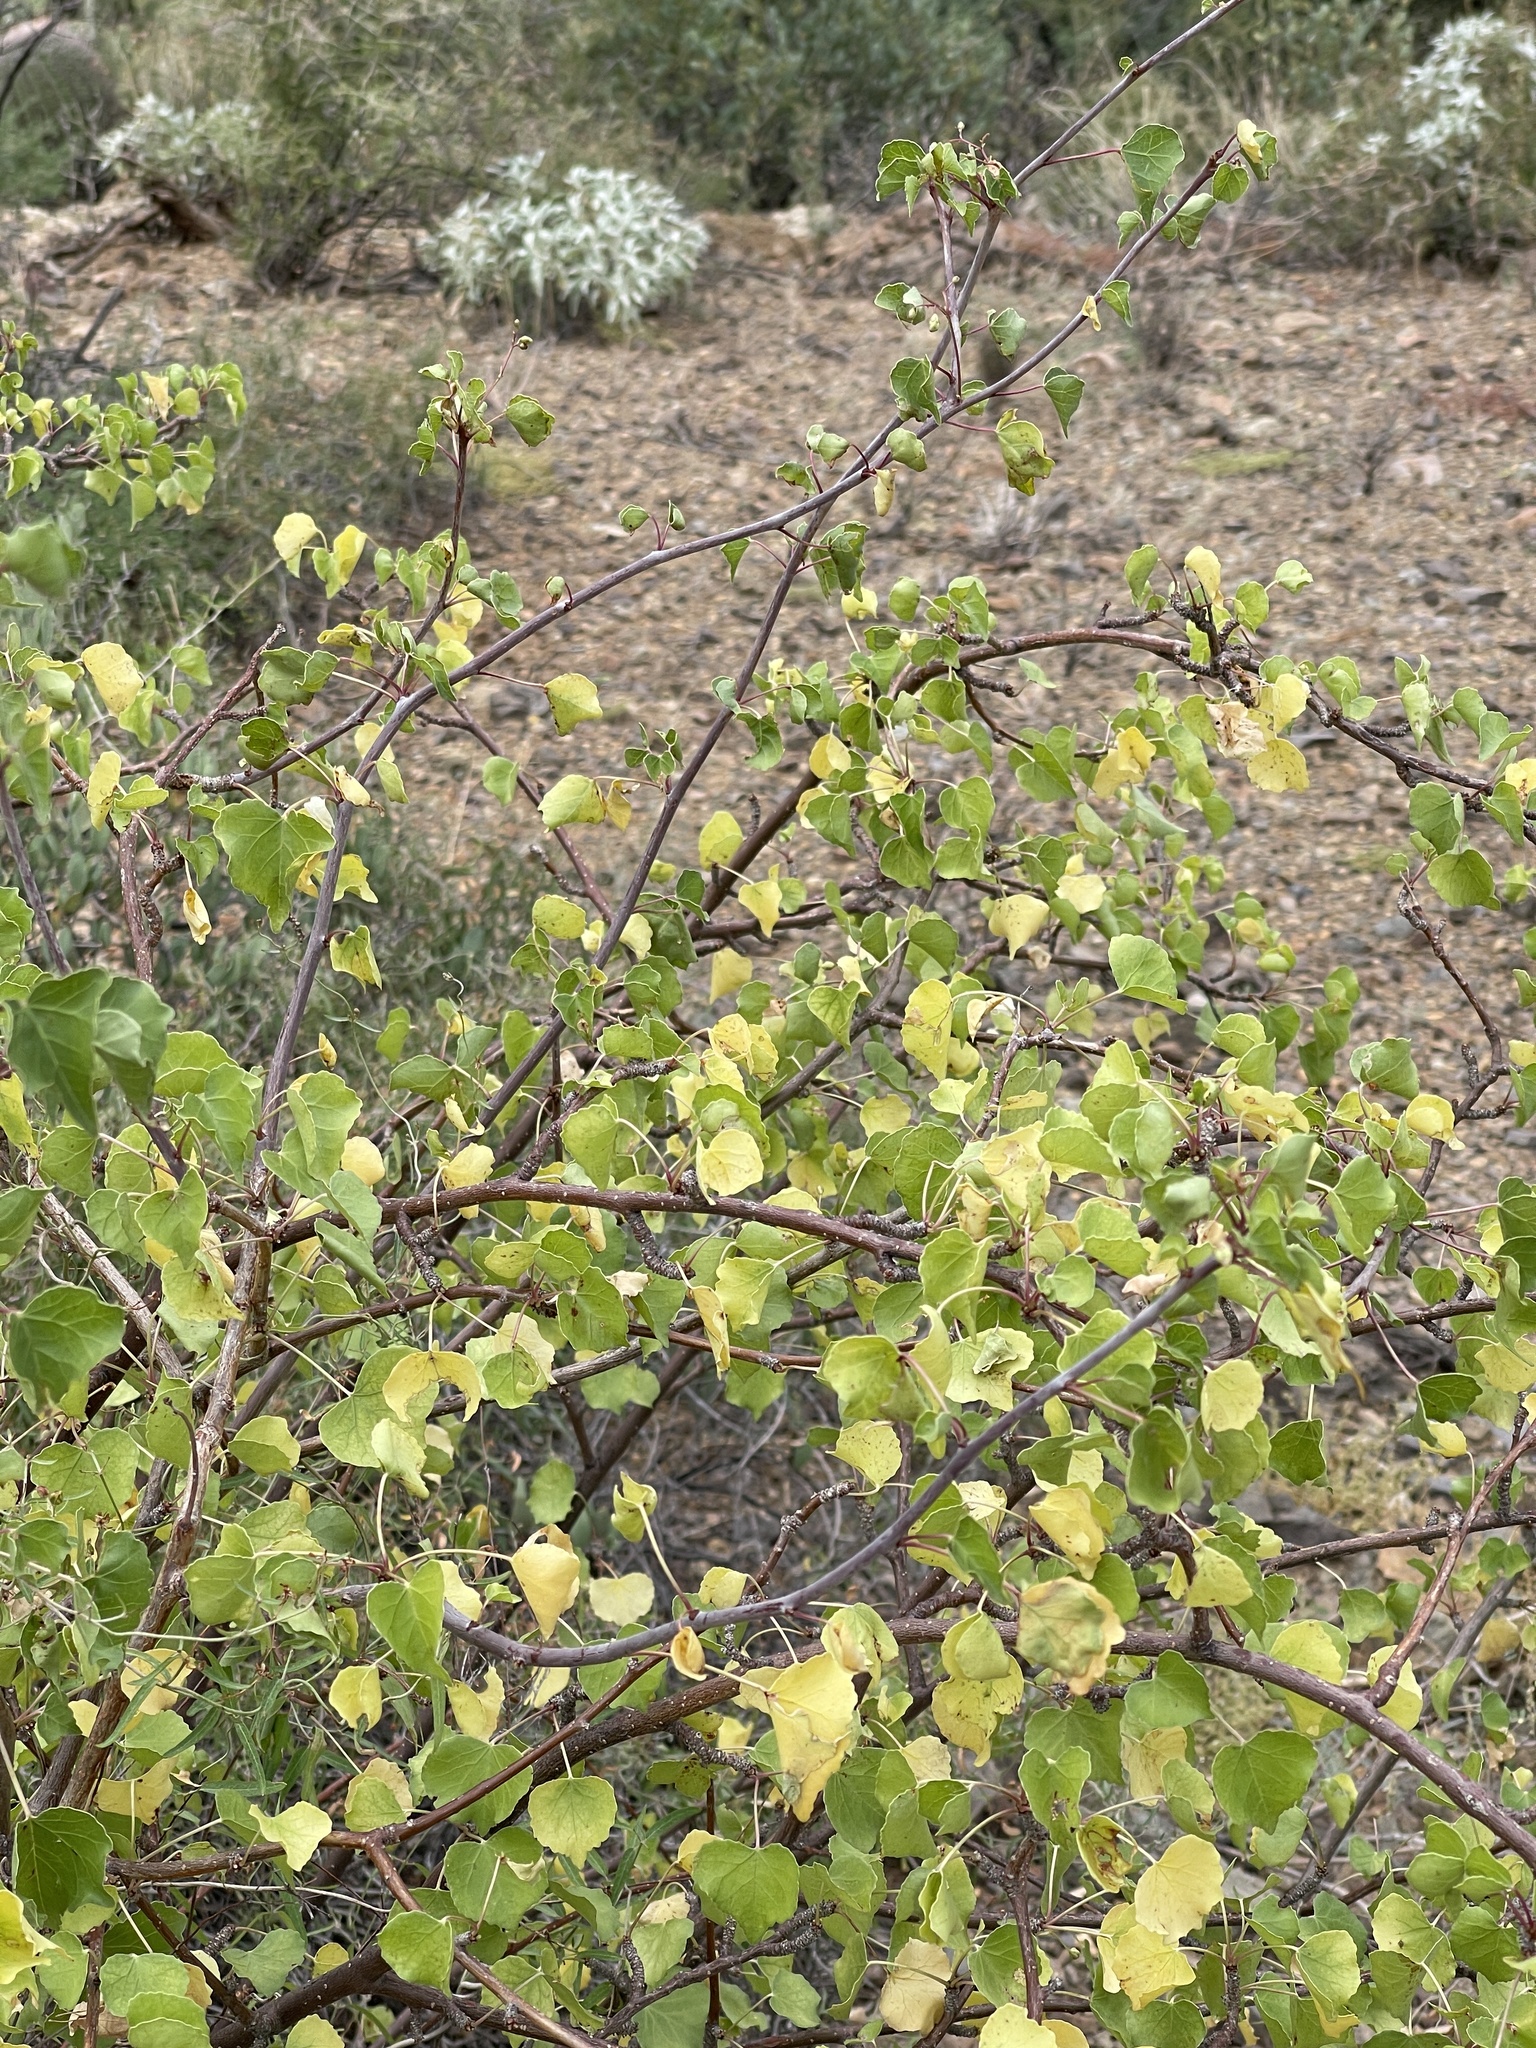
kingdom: Plantae
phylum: Tracheophyta
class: Magnoliopsida
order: Malpighiales
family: Euphorbiaceae
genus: Jatropha
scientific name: Jatropha cardiophylla
